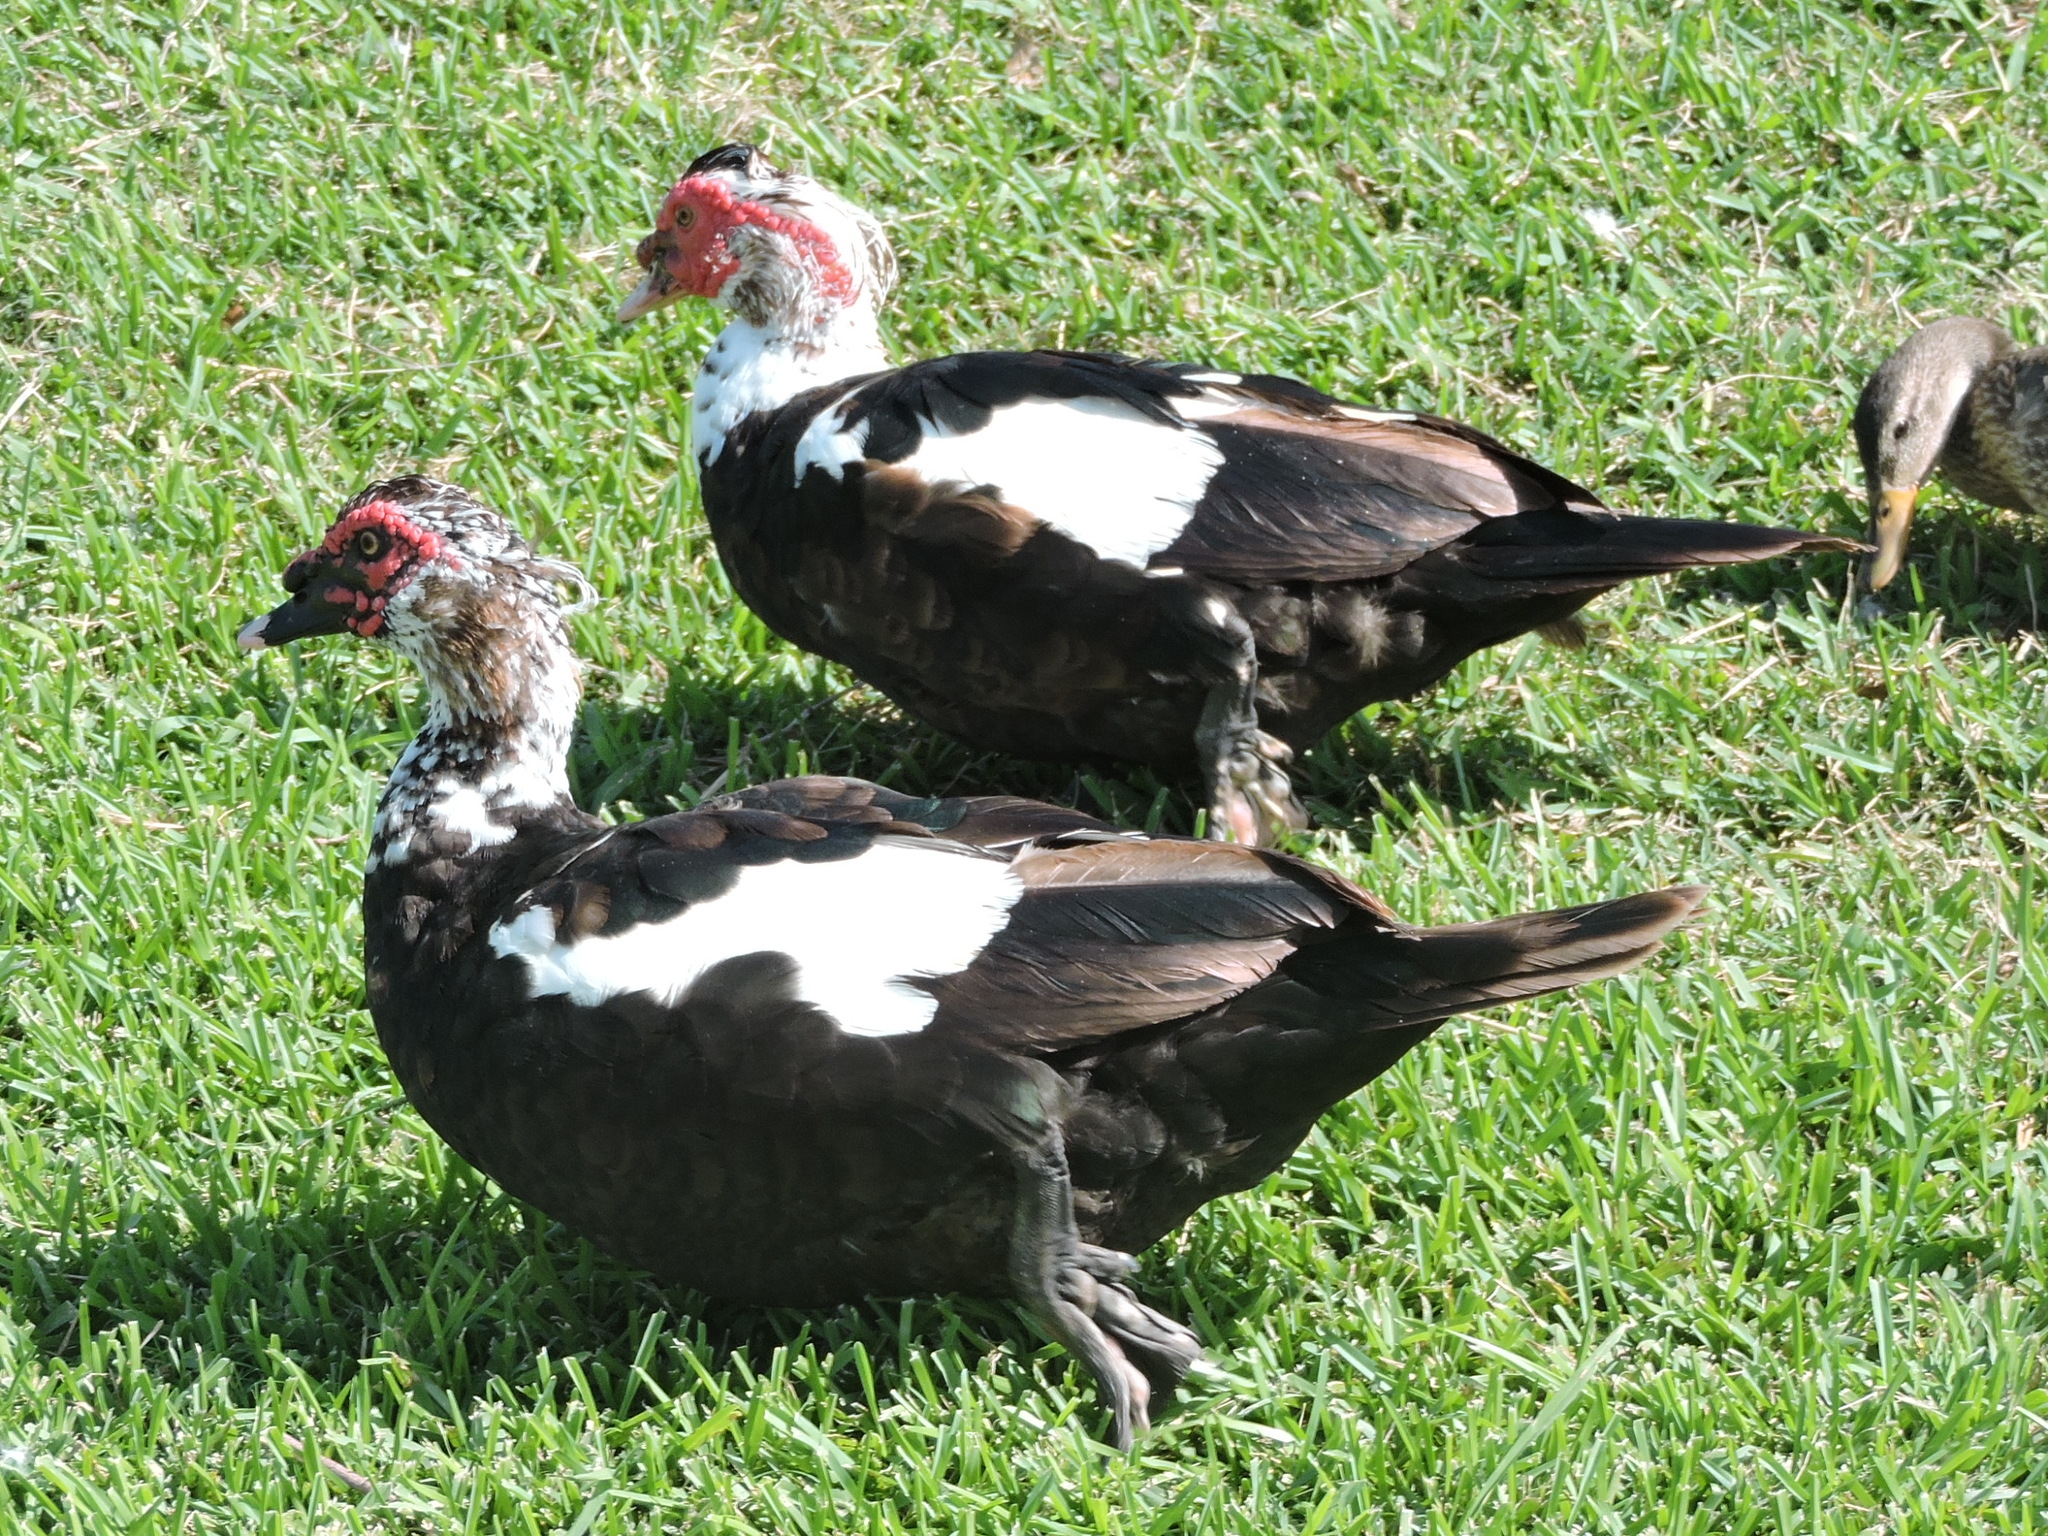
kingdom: Animalia
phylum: Chordata
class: Aves
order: Anseriformes
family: Anatidae
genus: Cairina
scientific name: Cairina moschata
